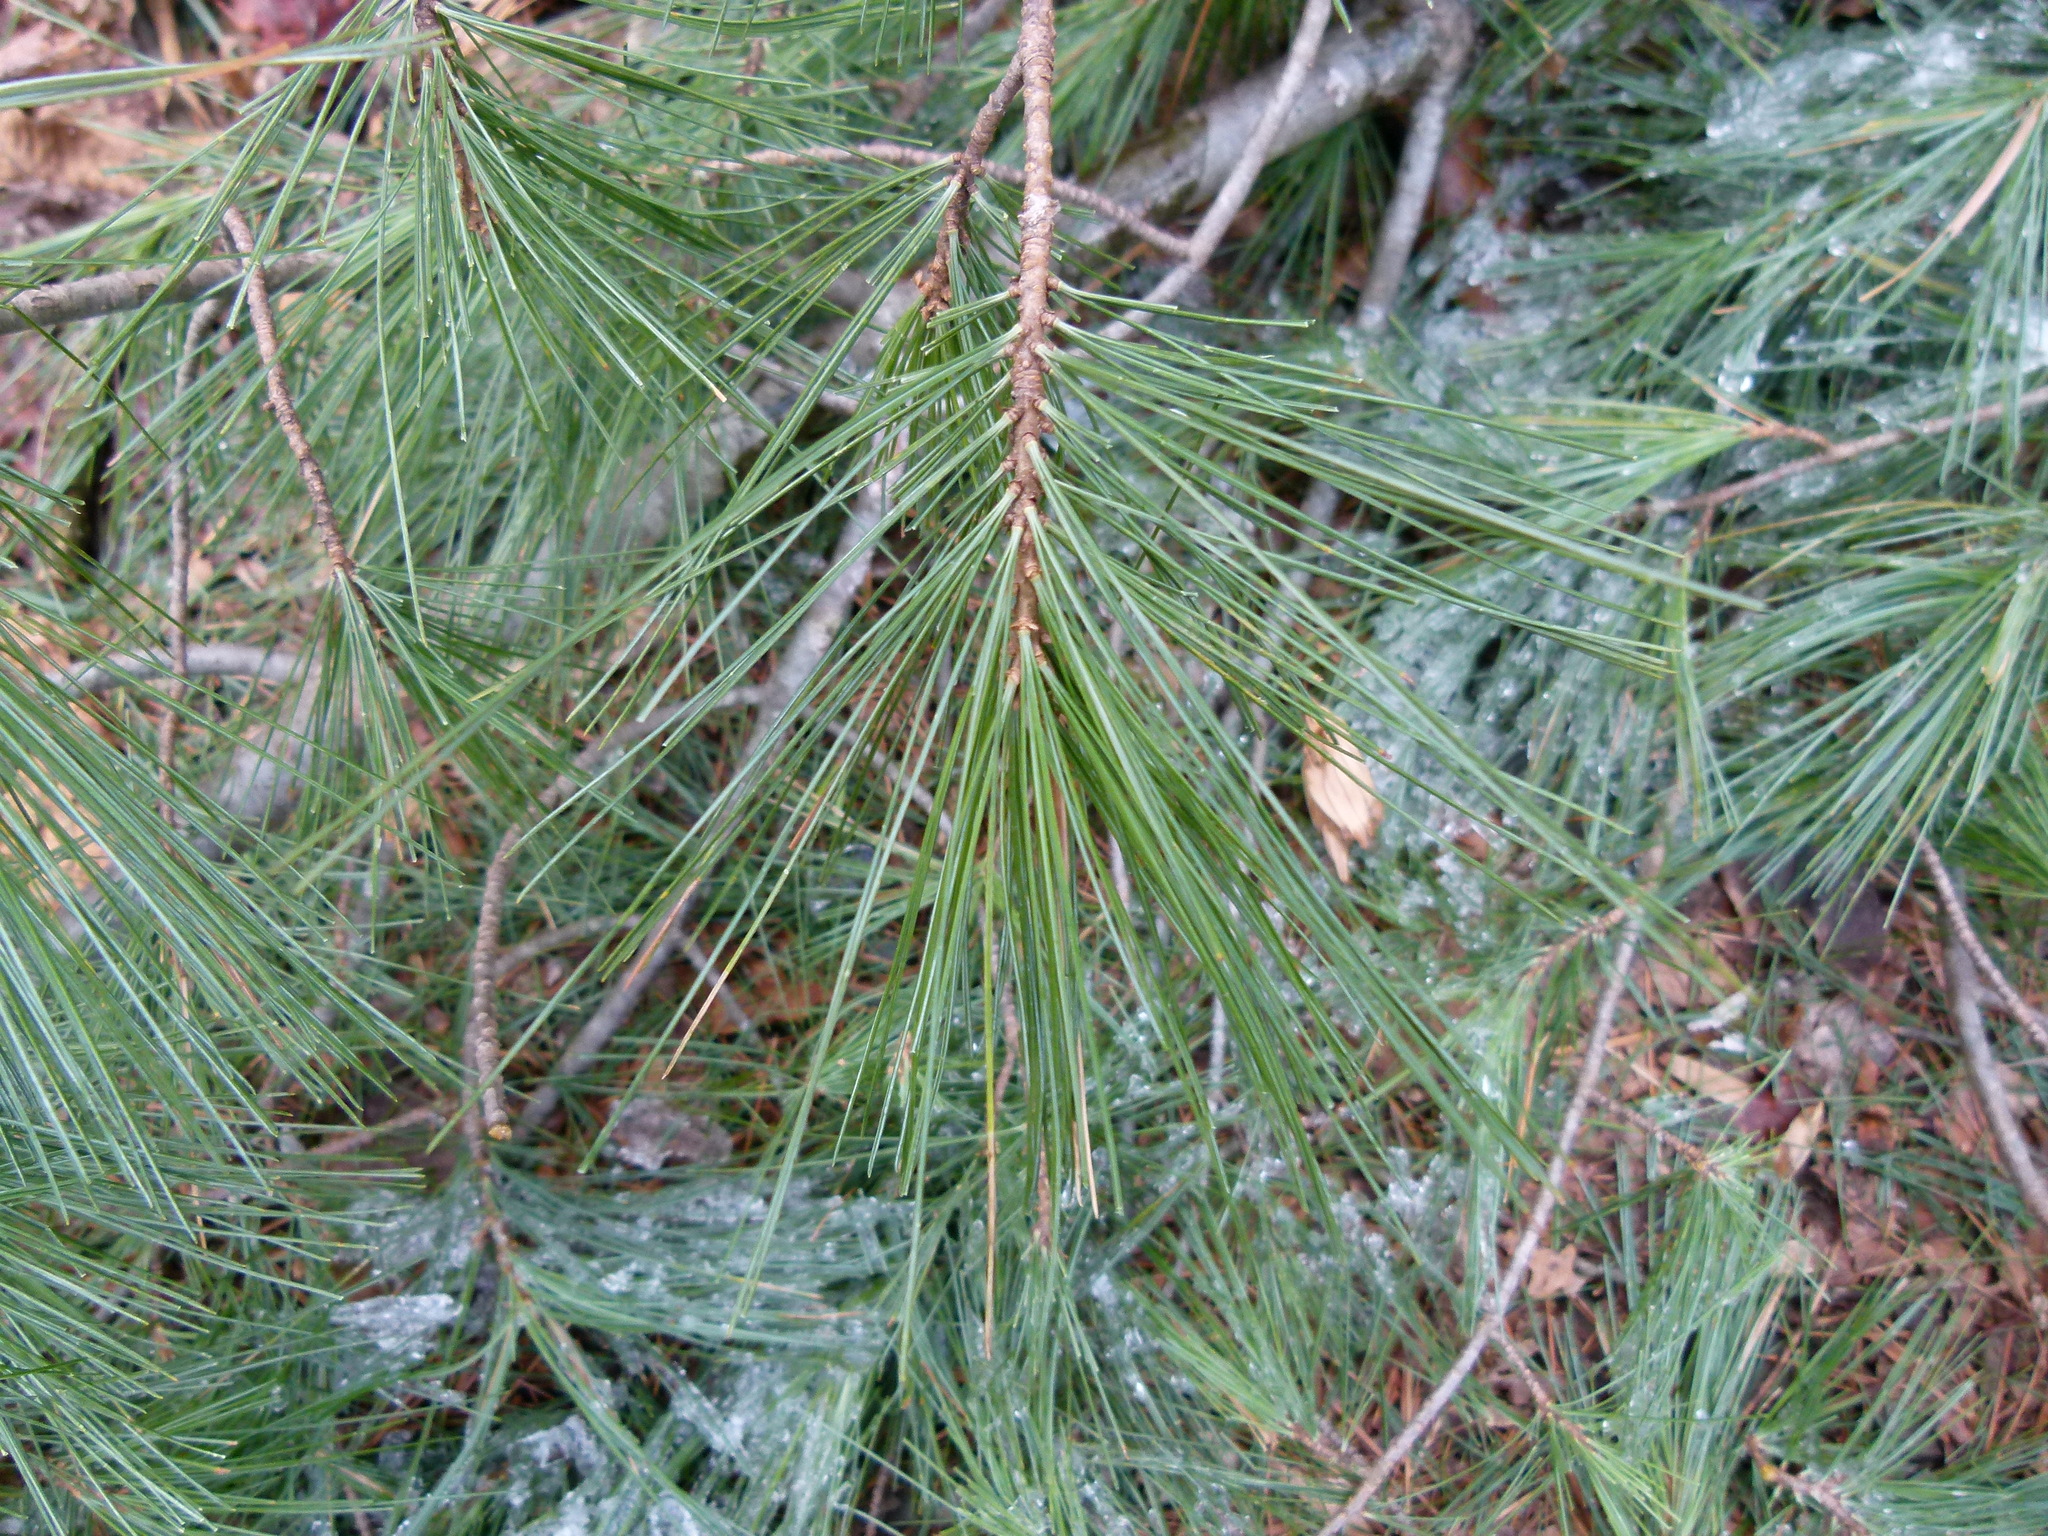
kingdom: Plantae
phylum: Tracheophyta
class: Pinopsida
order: Pinales
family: Pinaceae
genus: Pinus
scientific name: Pinus strobus
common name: Weymouth pine
